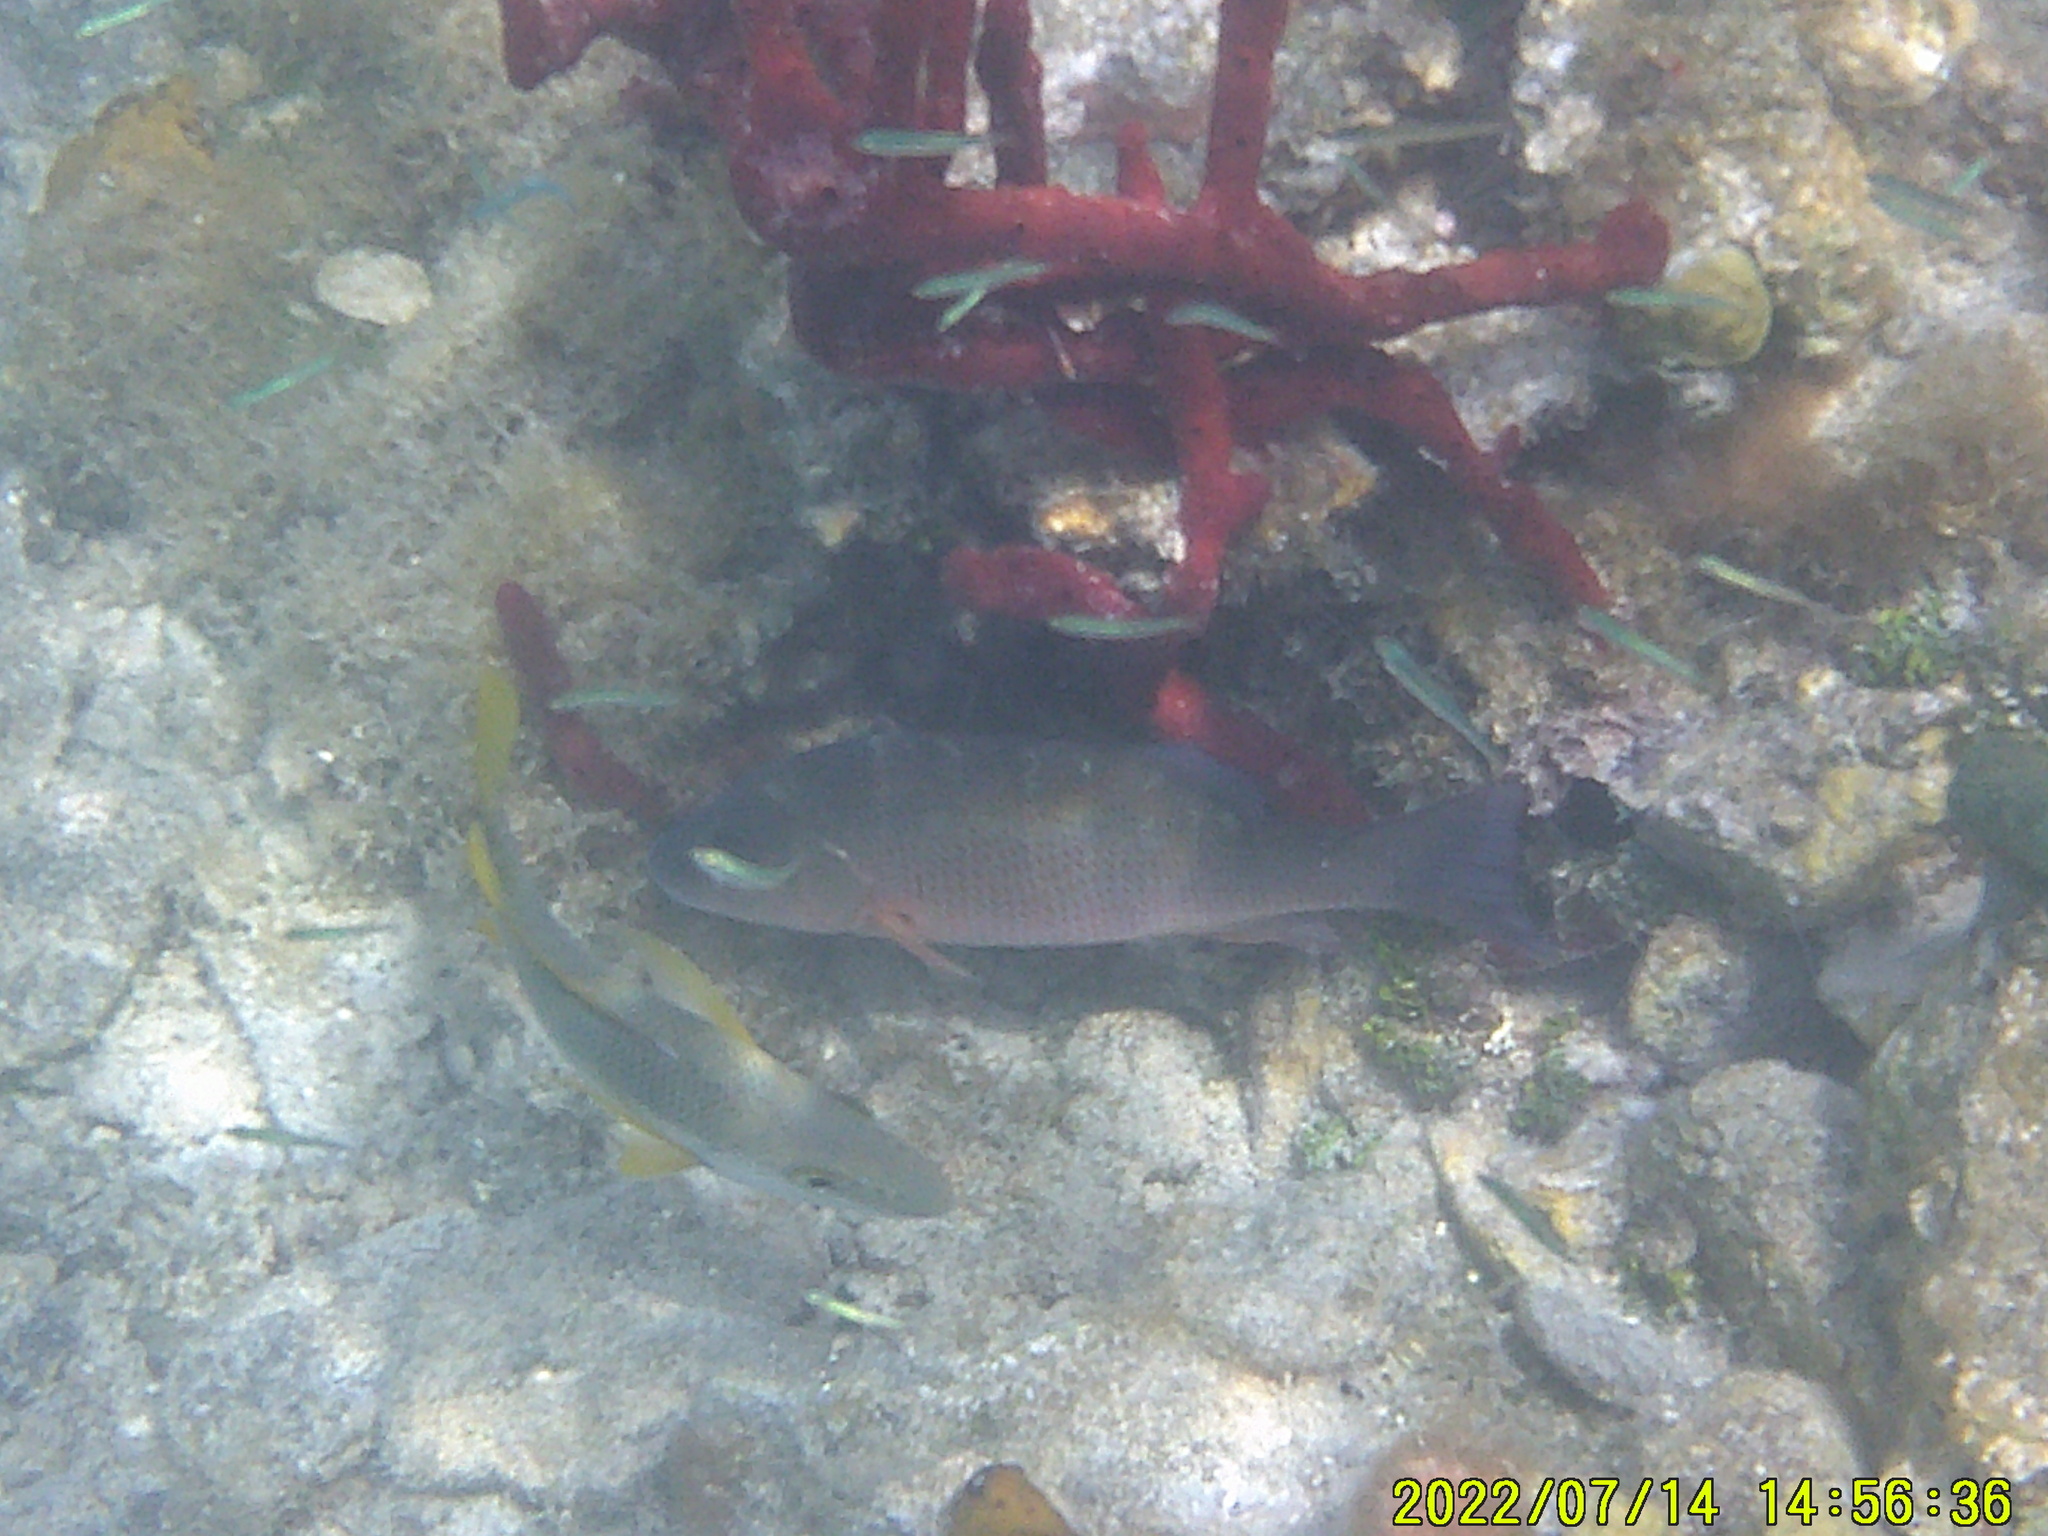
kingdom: Animalia
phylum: Chordata
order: Perciformes
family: Lutjanidae
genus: Lutjanus
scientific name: Lutjanus apodus
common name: Schoolmaster
